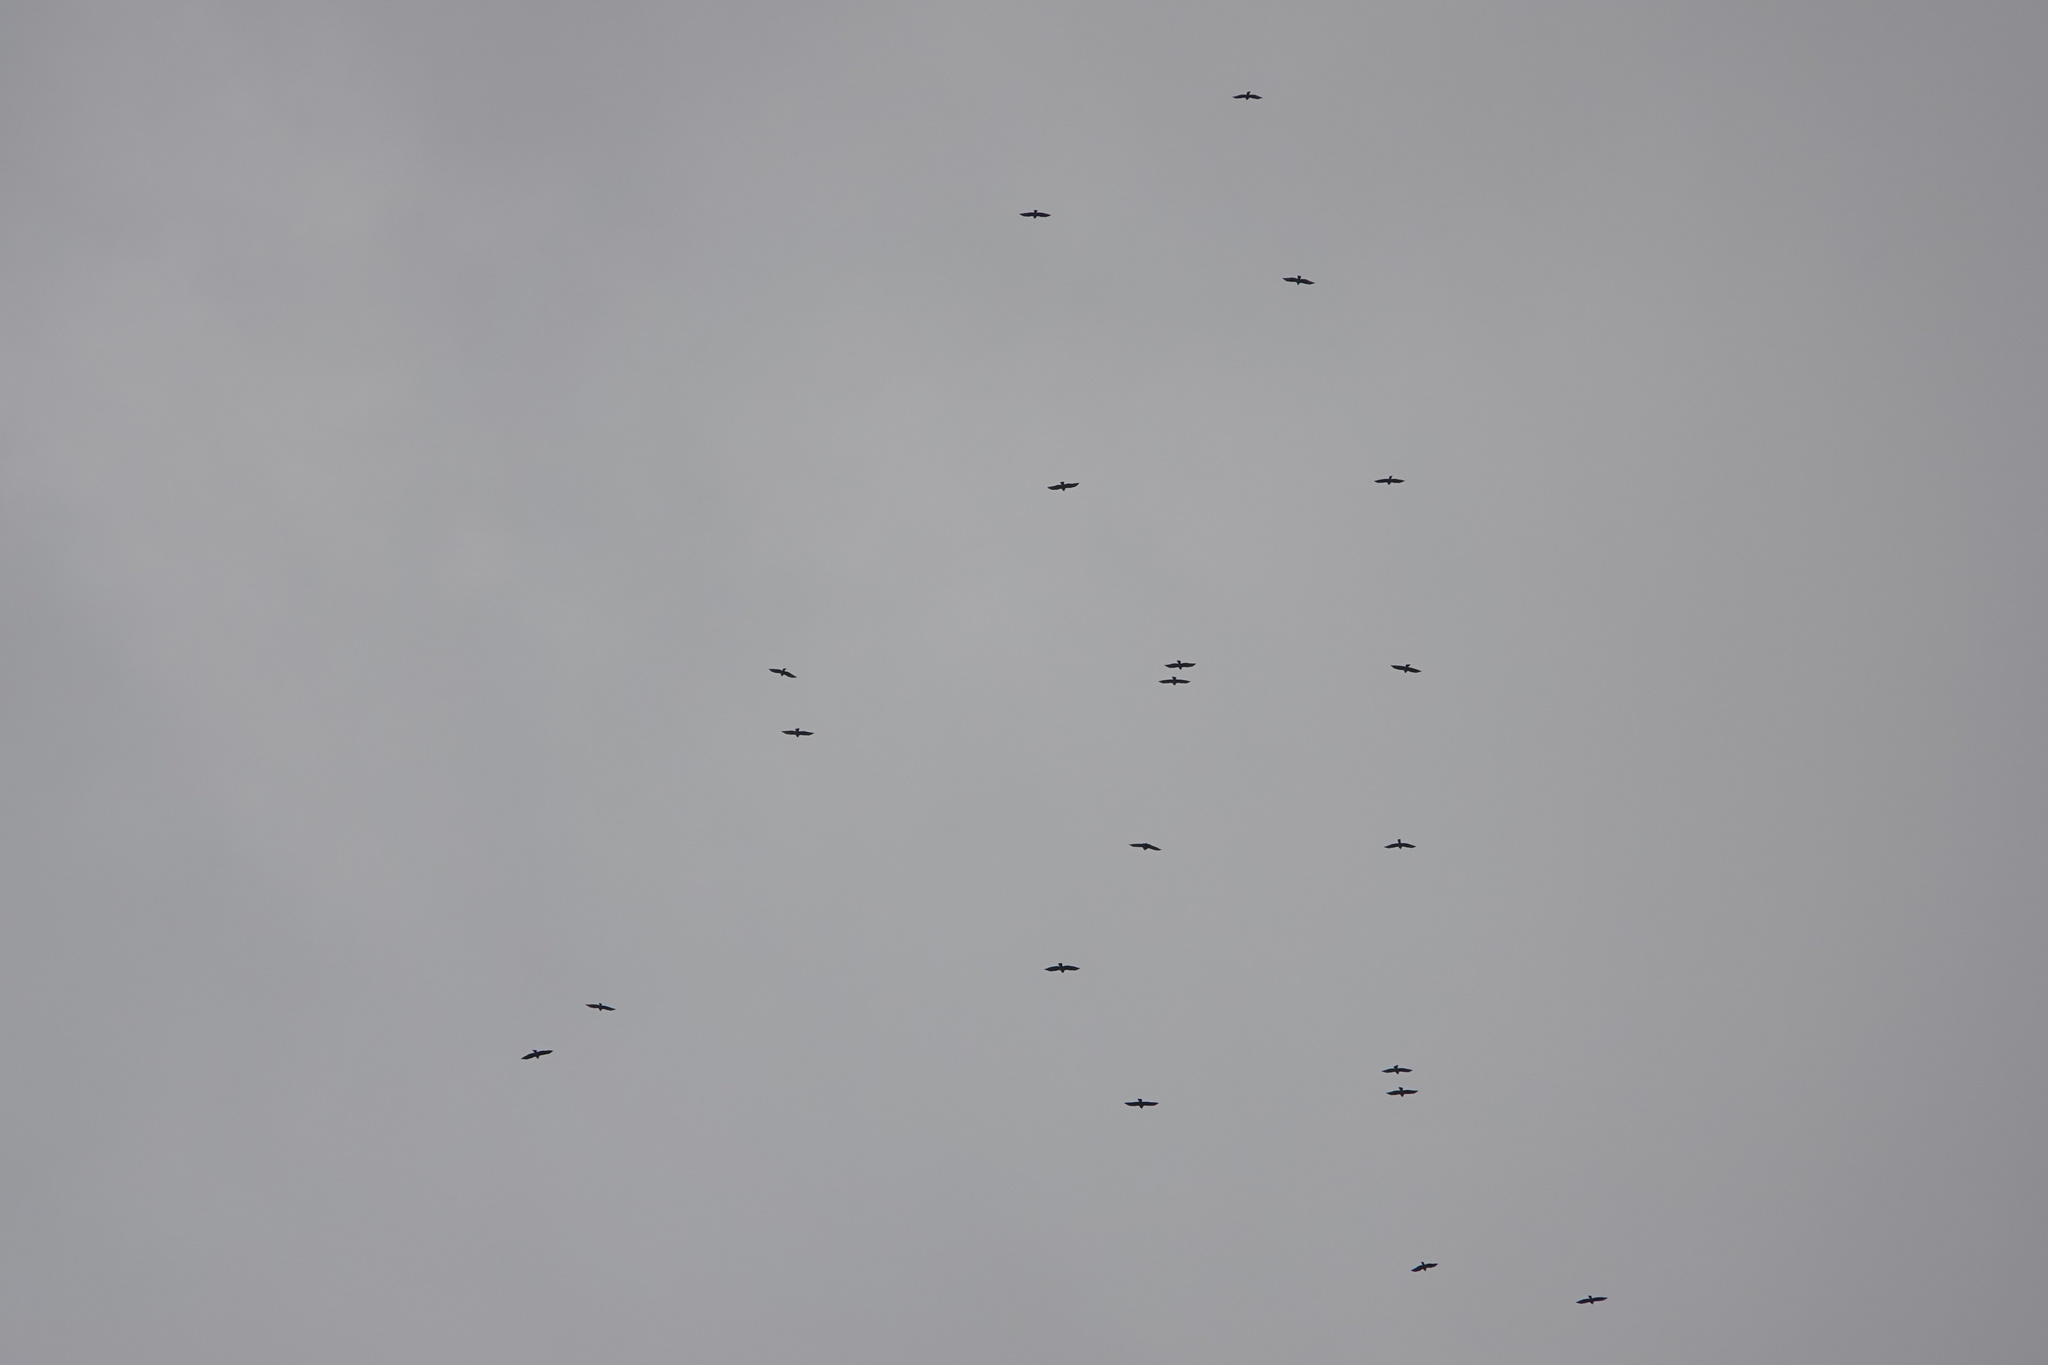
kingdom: Animalia
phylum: Chordata
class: Aves
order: Accipitriformes
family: Accipitridae
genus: Buteo
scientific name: Buteo platypterus
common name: Broad-winged hawk
